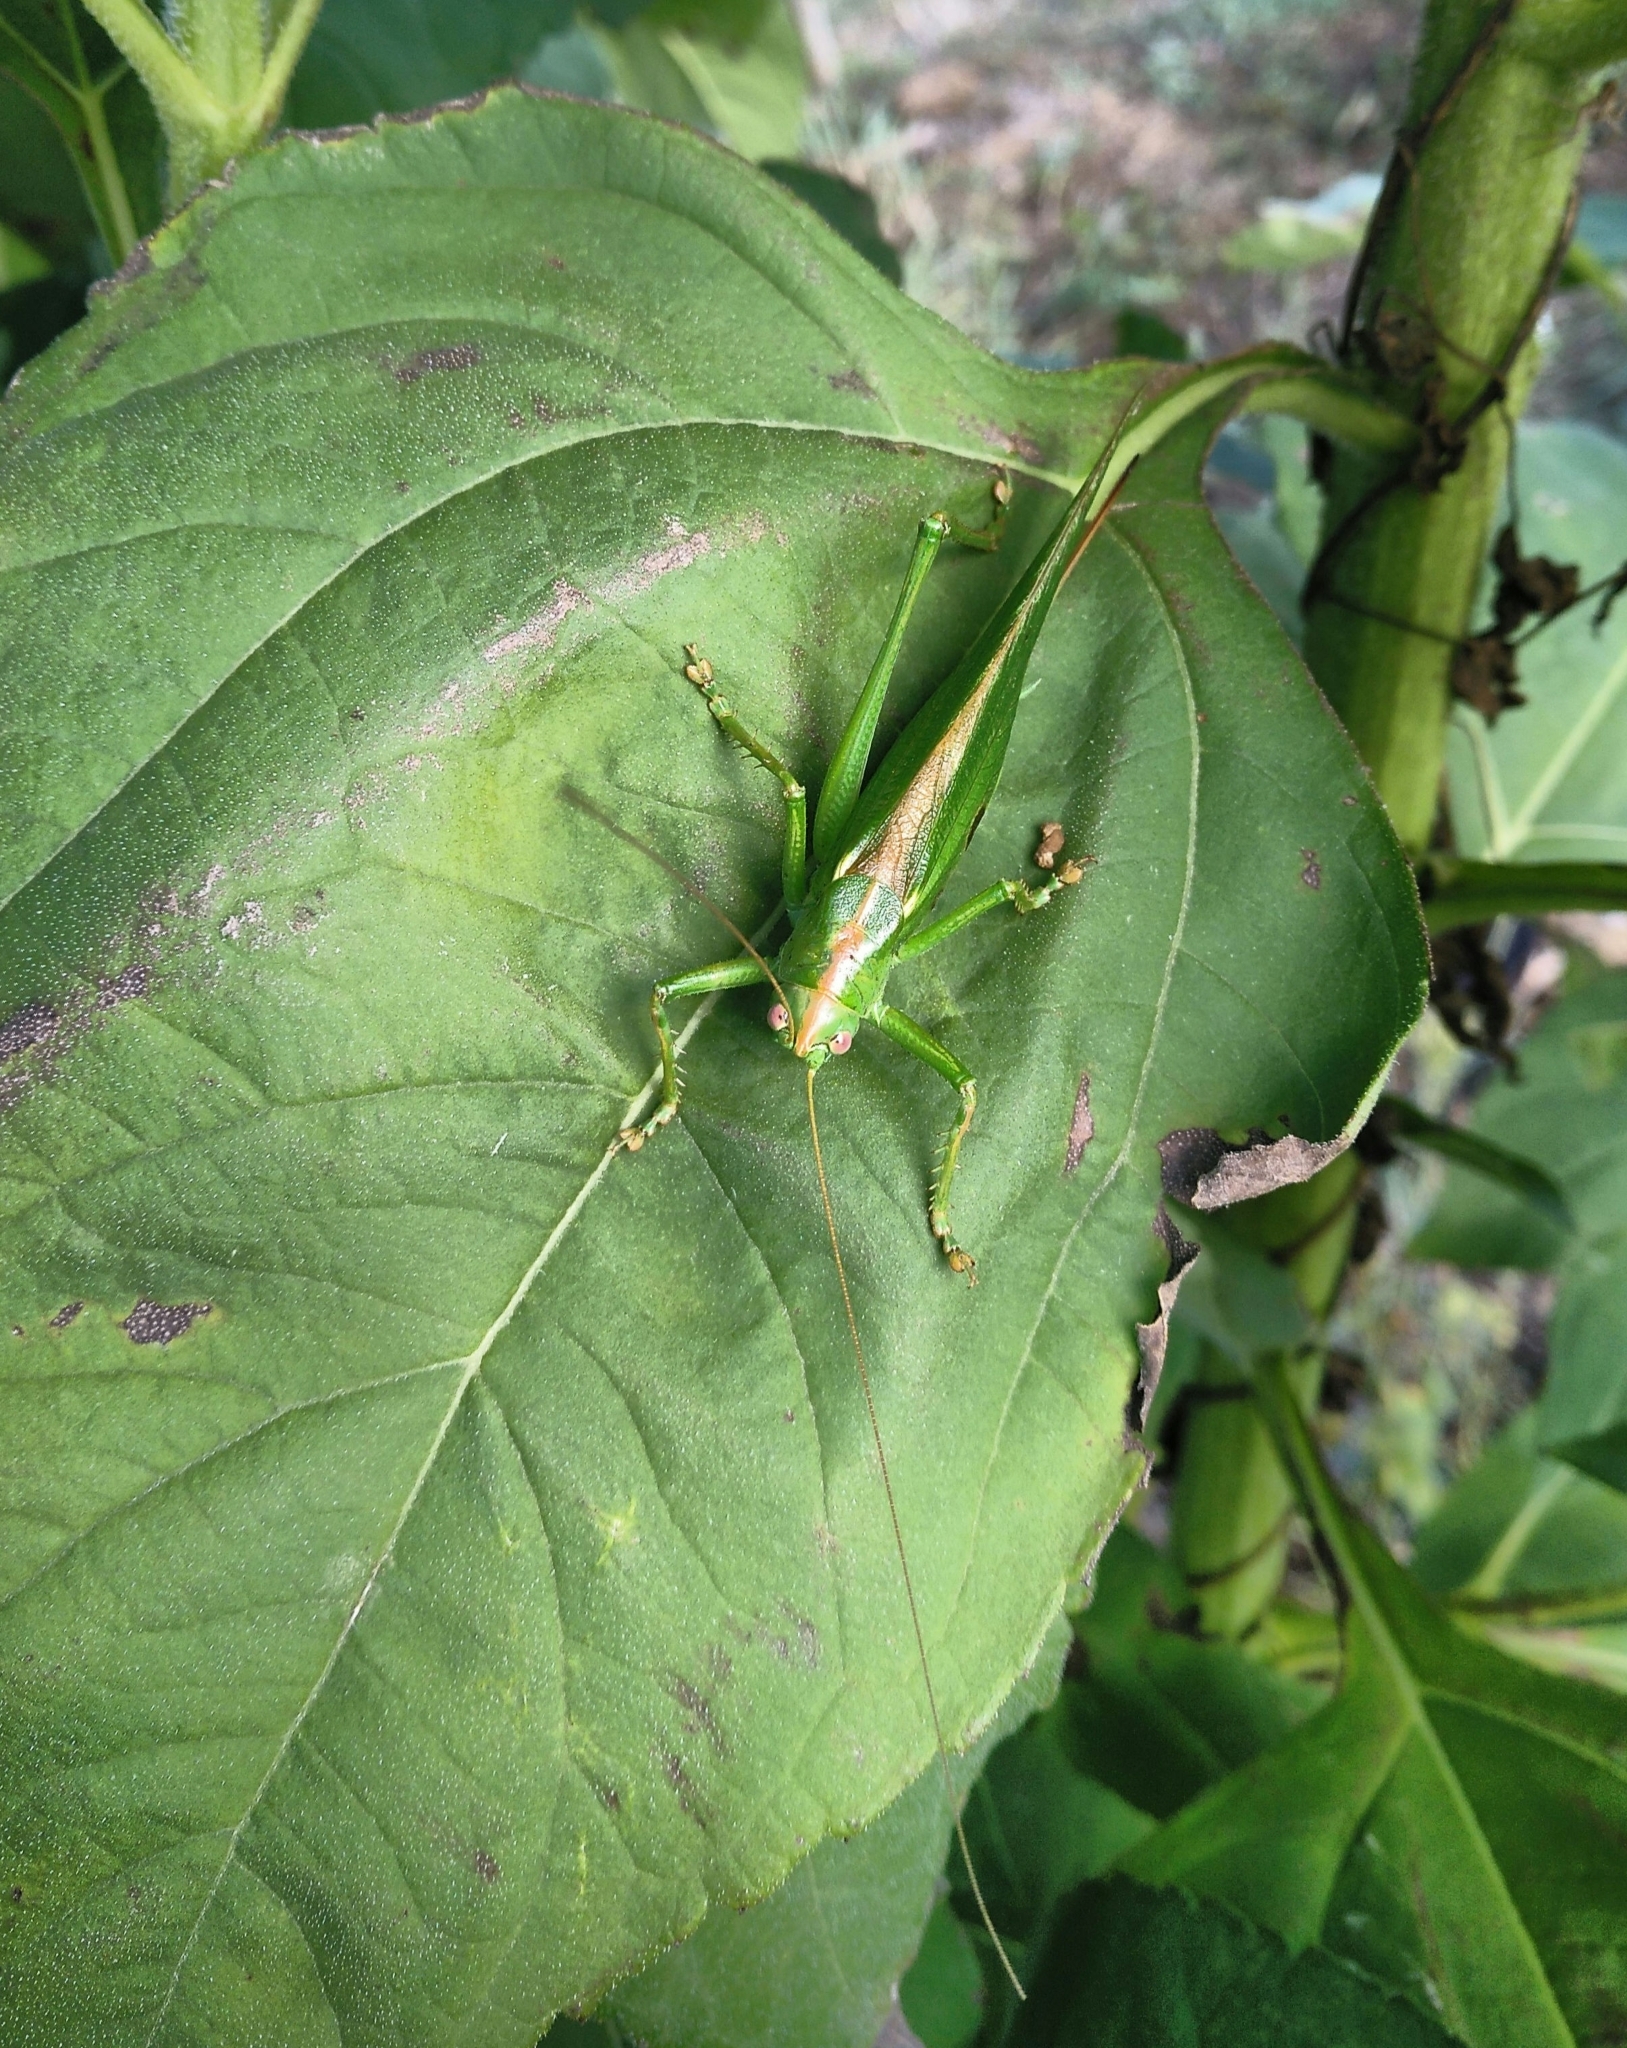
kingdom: Animalia
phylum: Arthropoda
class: Insecta
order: Orthoptera
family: Tettigoniidae
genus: Tettigonia
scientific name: Tettigonia viridissima
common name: Great green bush-cricket
